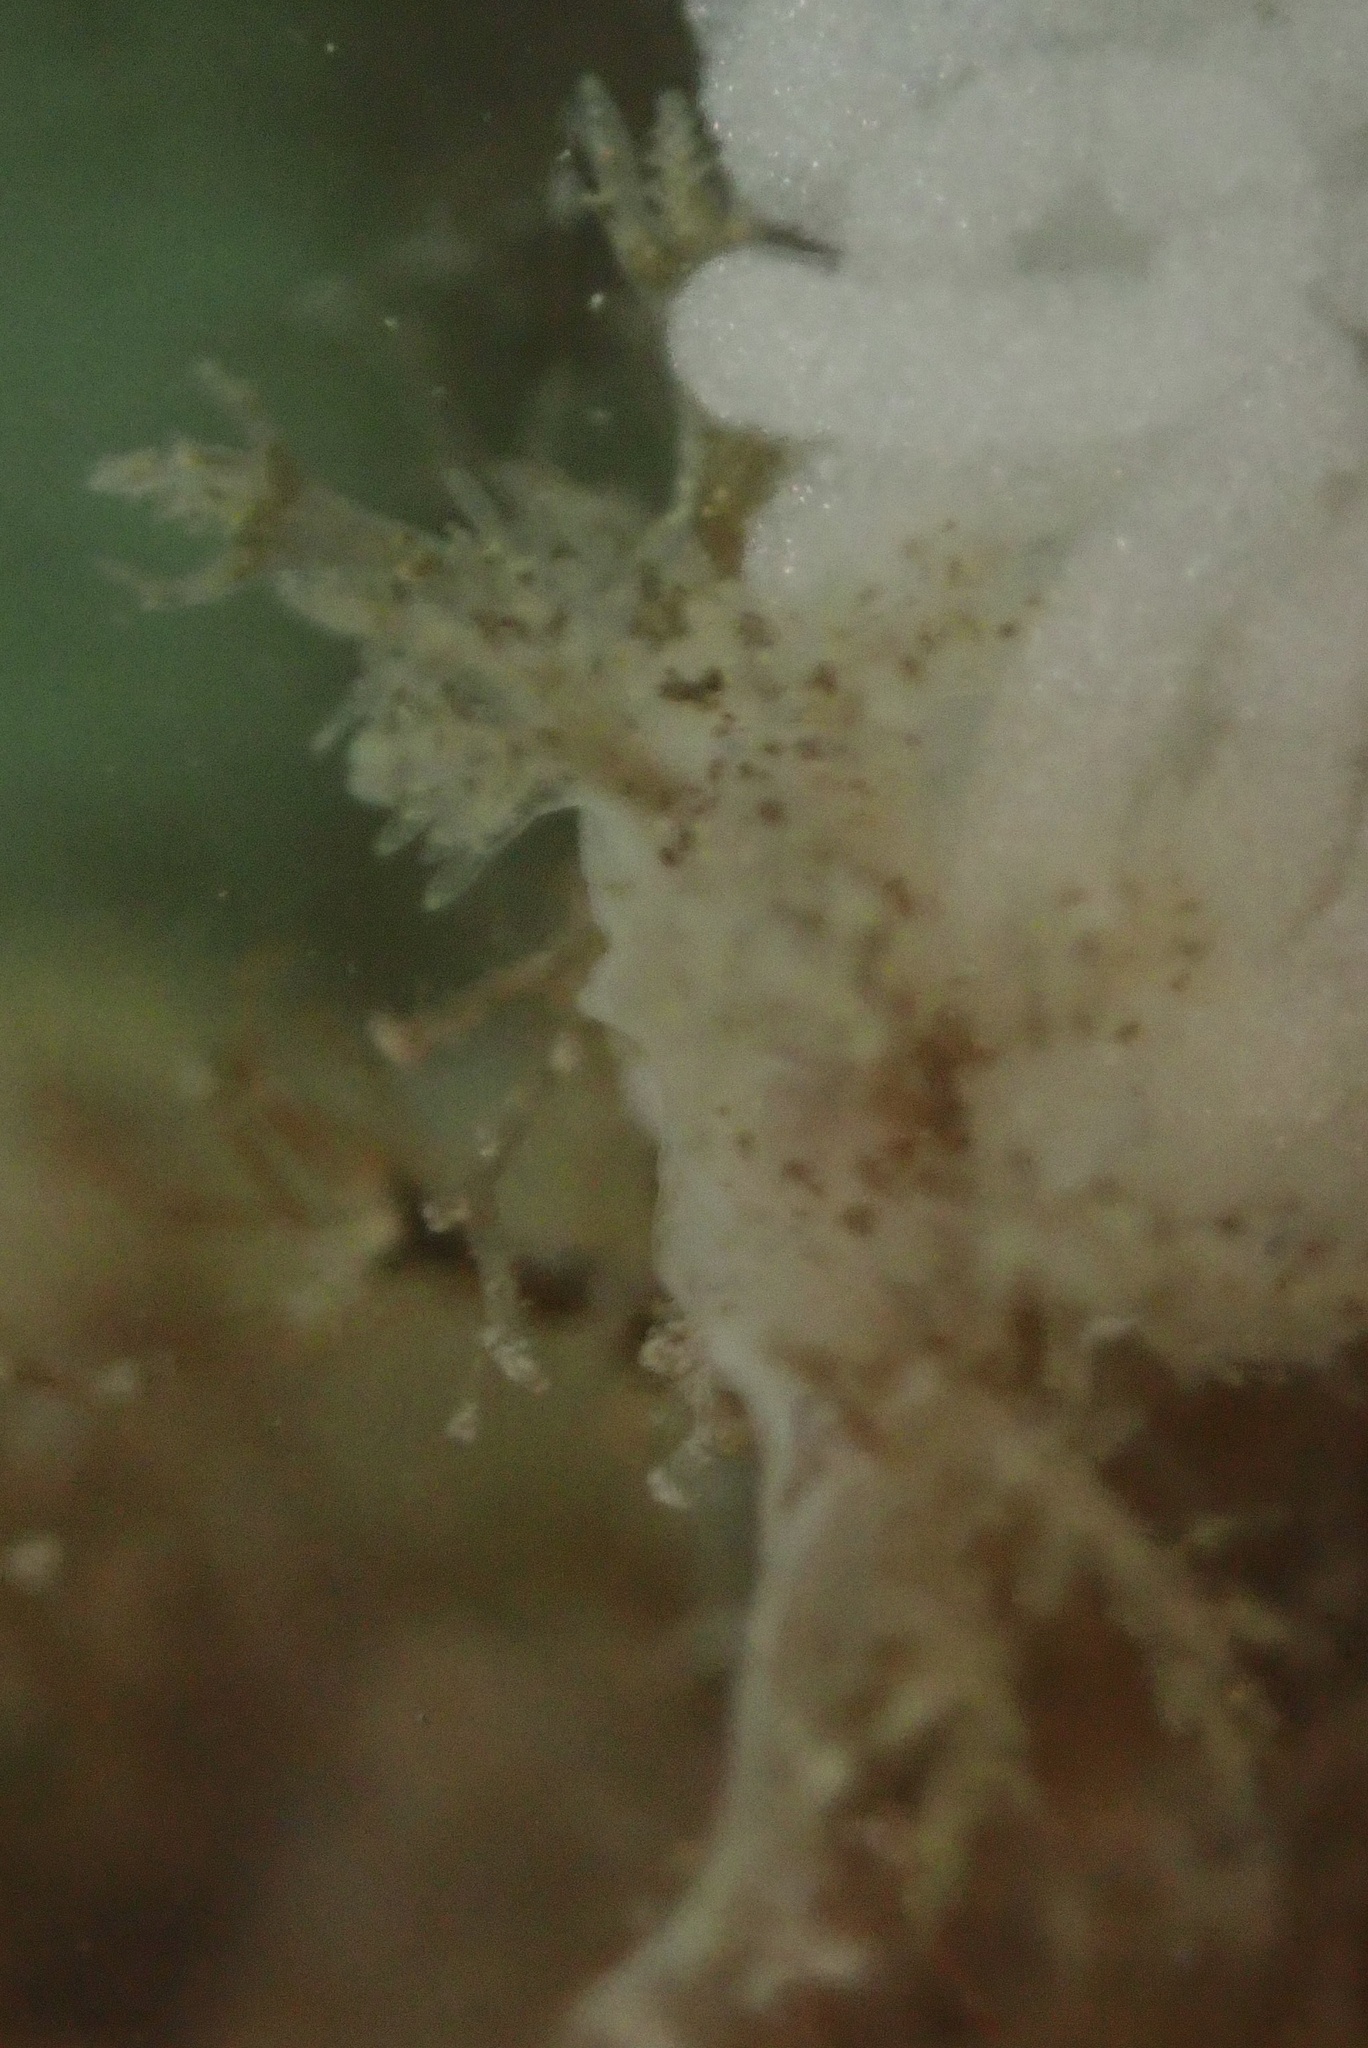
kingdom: Animalia
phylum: Mollusca
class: Gastropoda
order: Nudibranchia
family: Dendronotidae
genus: Dendronotus
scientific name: Dendronotus venustus
